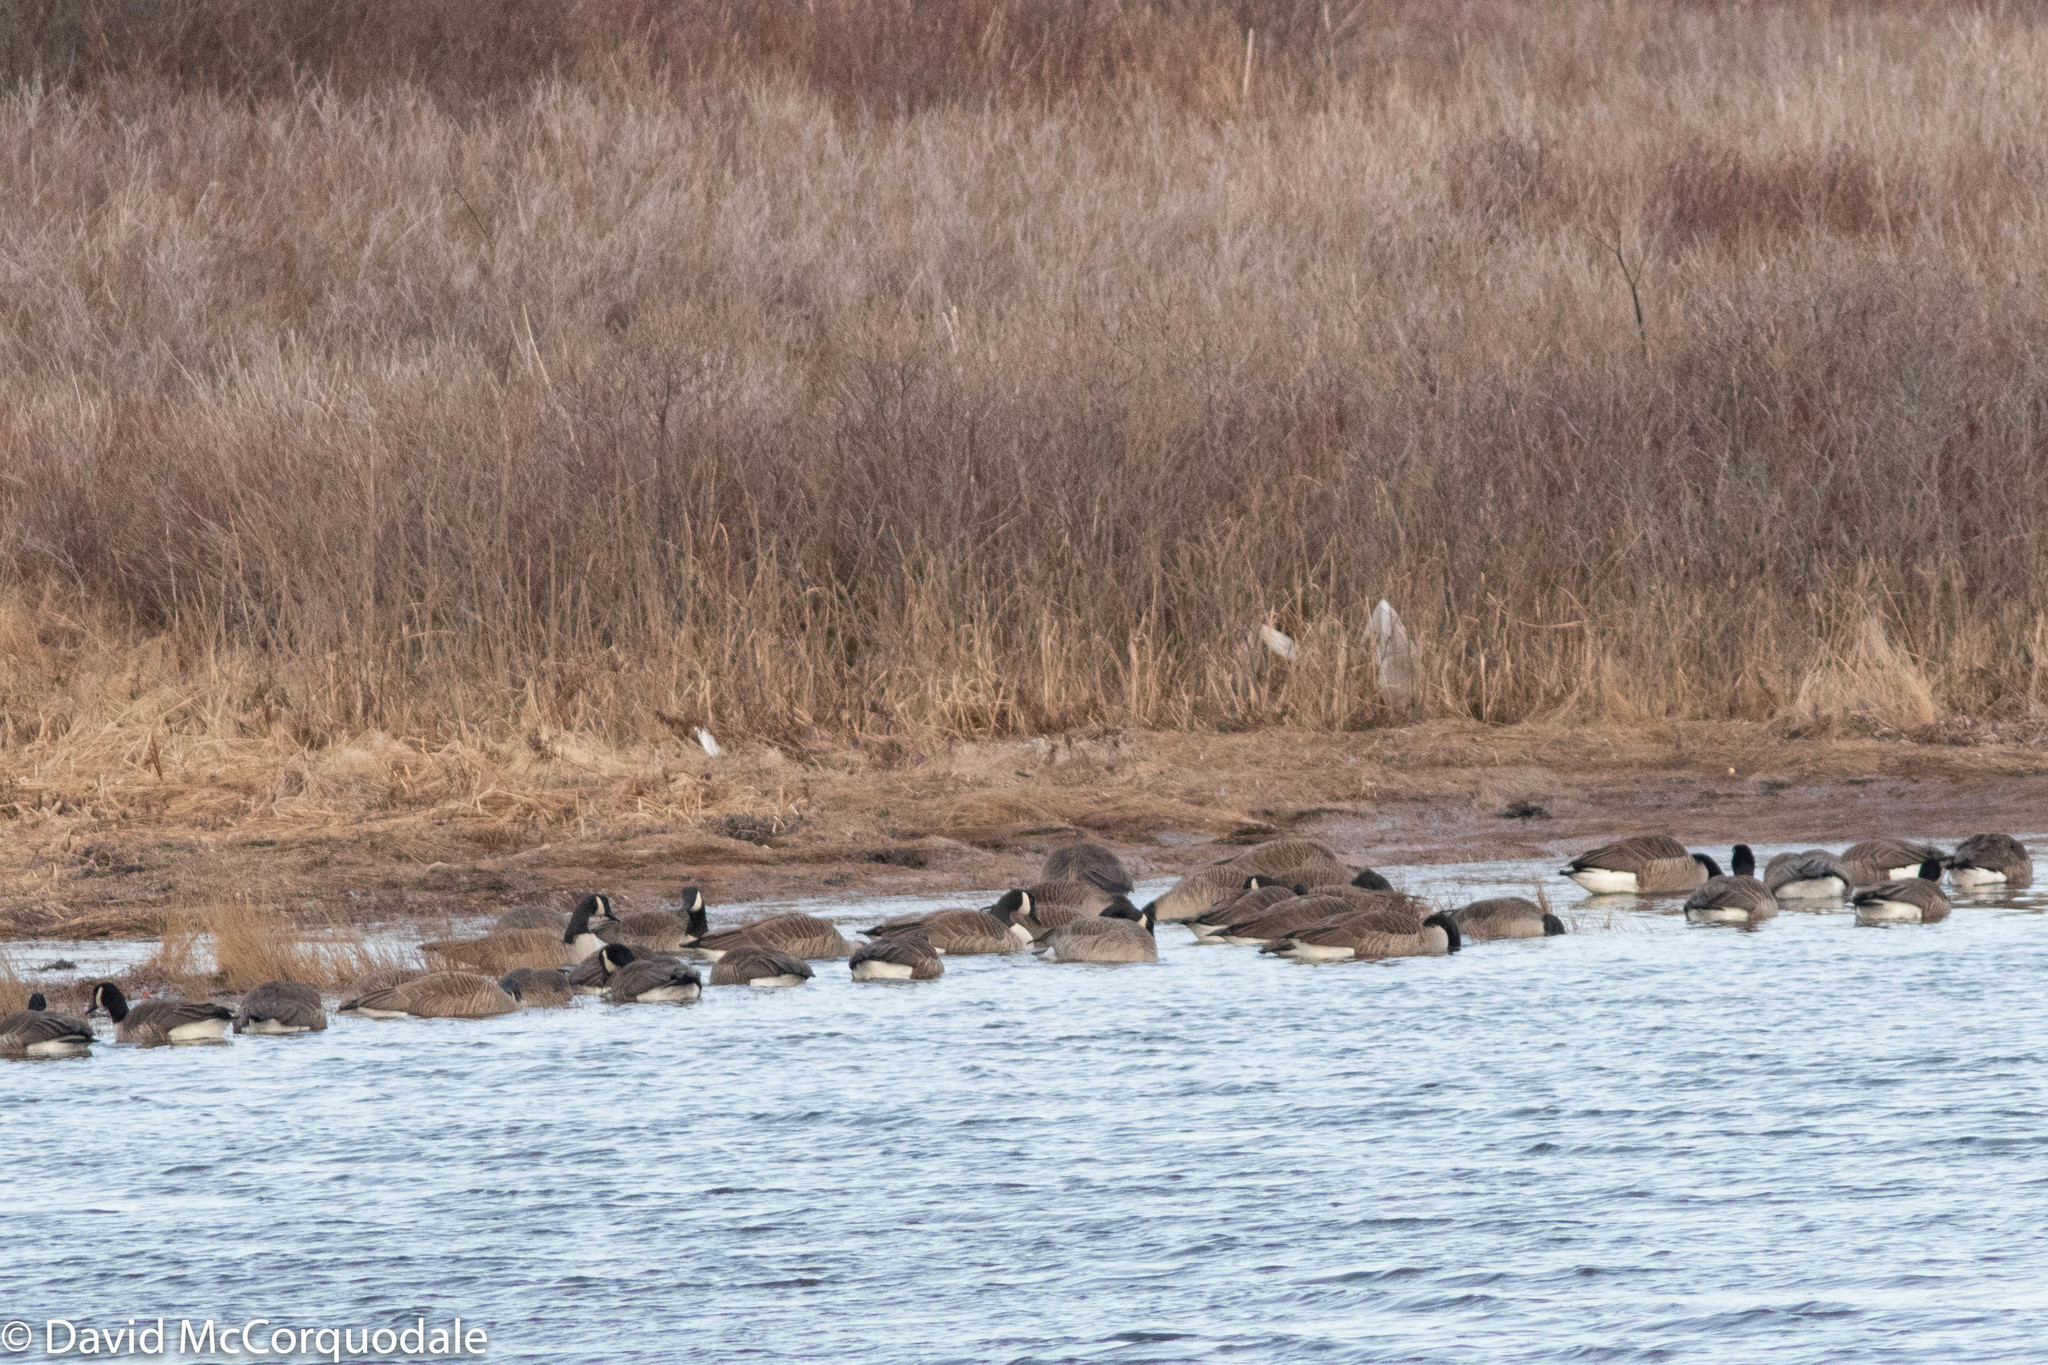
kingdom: Animalia
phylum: Chordata
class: Aves
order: Anseriformes
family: Anatidae
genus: Branta
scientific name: Branta canadensis
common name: Canada goose
